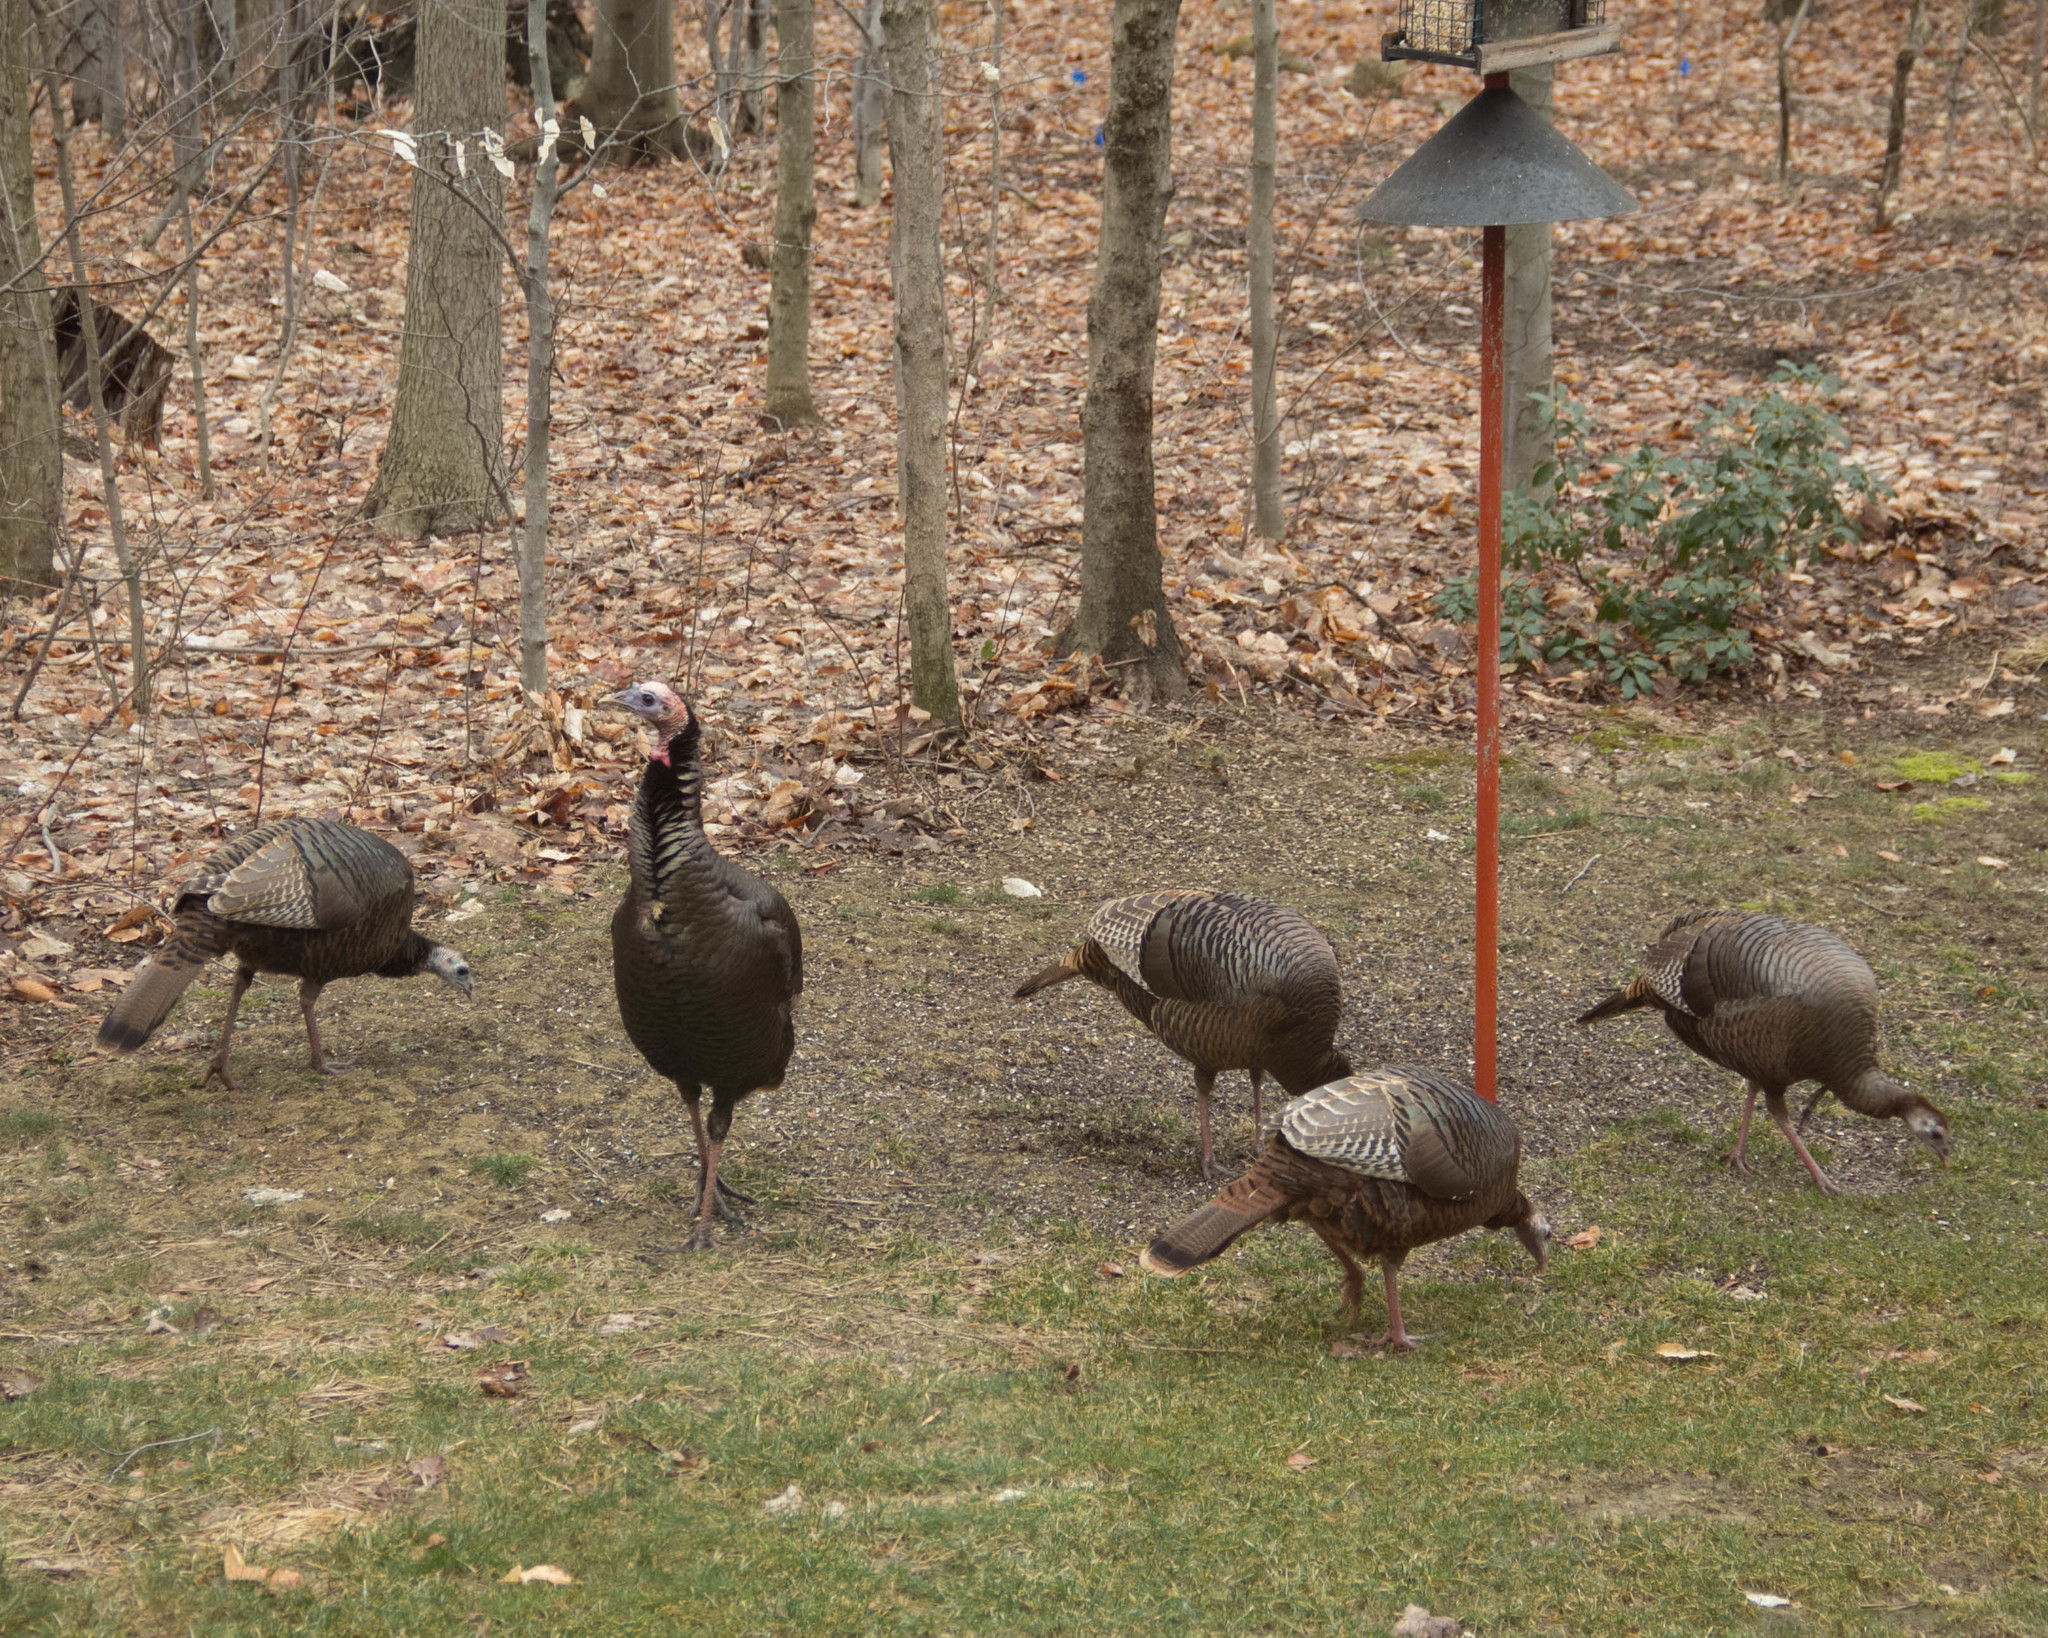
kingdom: Animalia
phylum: Chordata
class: Aves
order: Galliformes
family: Phasianidae
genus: Meleagris
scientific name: Meleagris gallopavo
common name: Wild turkey
